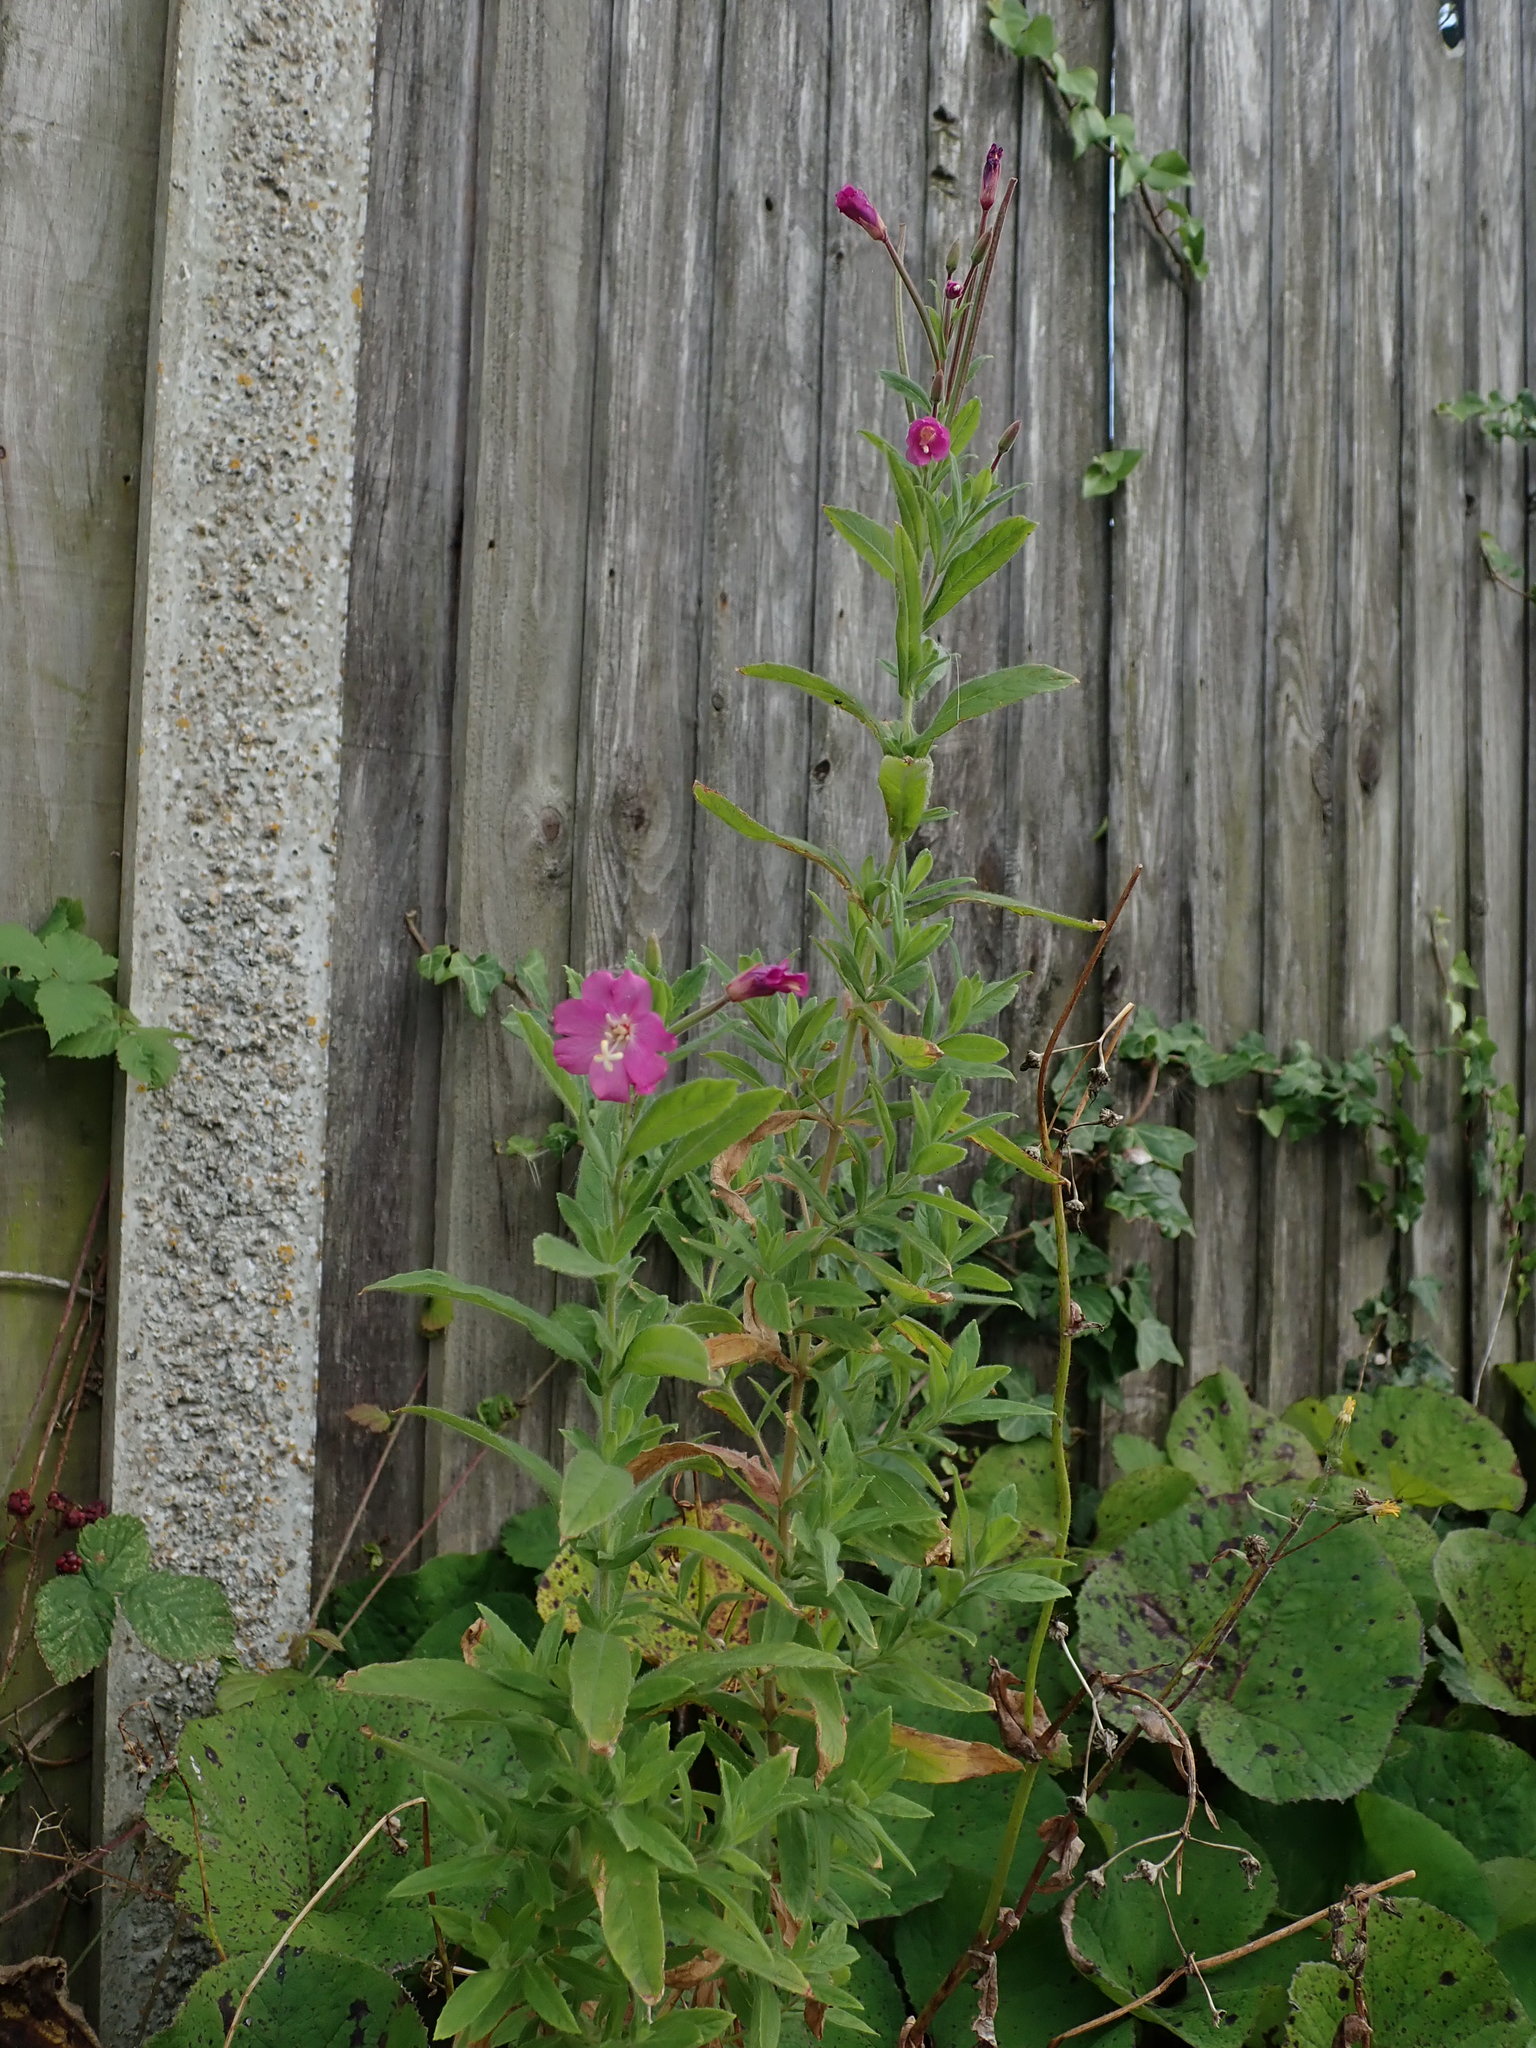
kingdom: Plantae
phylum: Tracheophyta
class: Magnoliopsida
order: Myrtales
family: Onagraceae
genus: Epilobium
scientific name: Epilobium hirsutum
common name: Great willowherb
